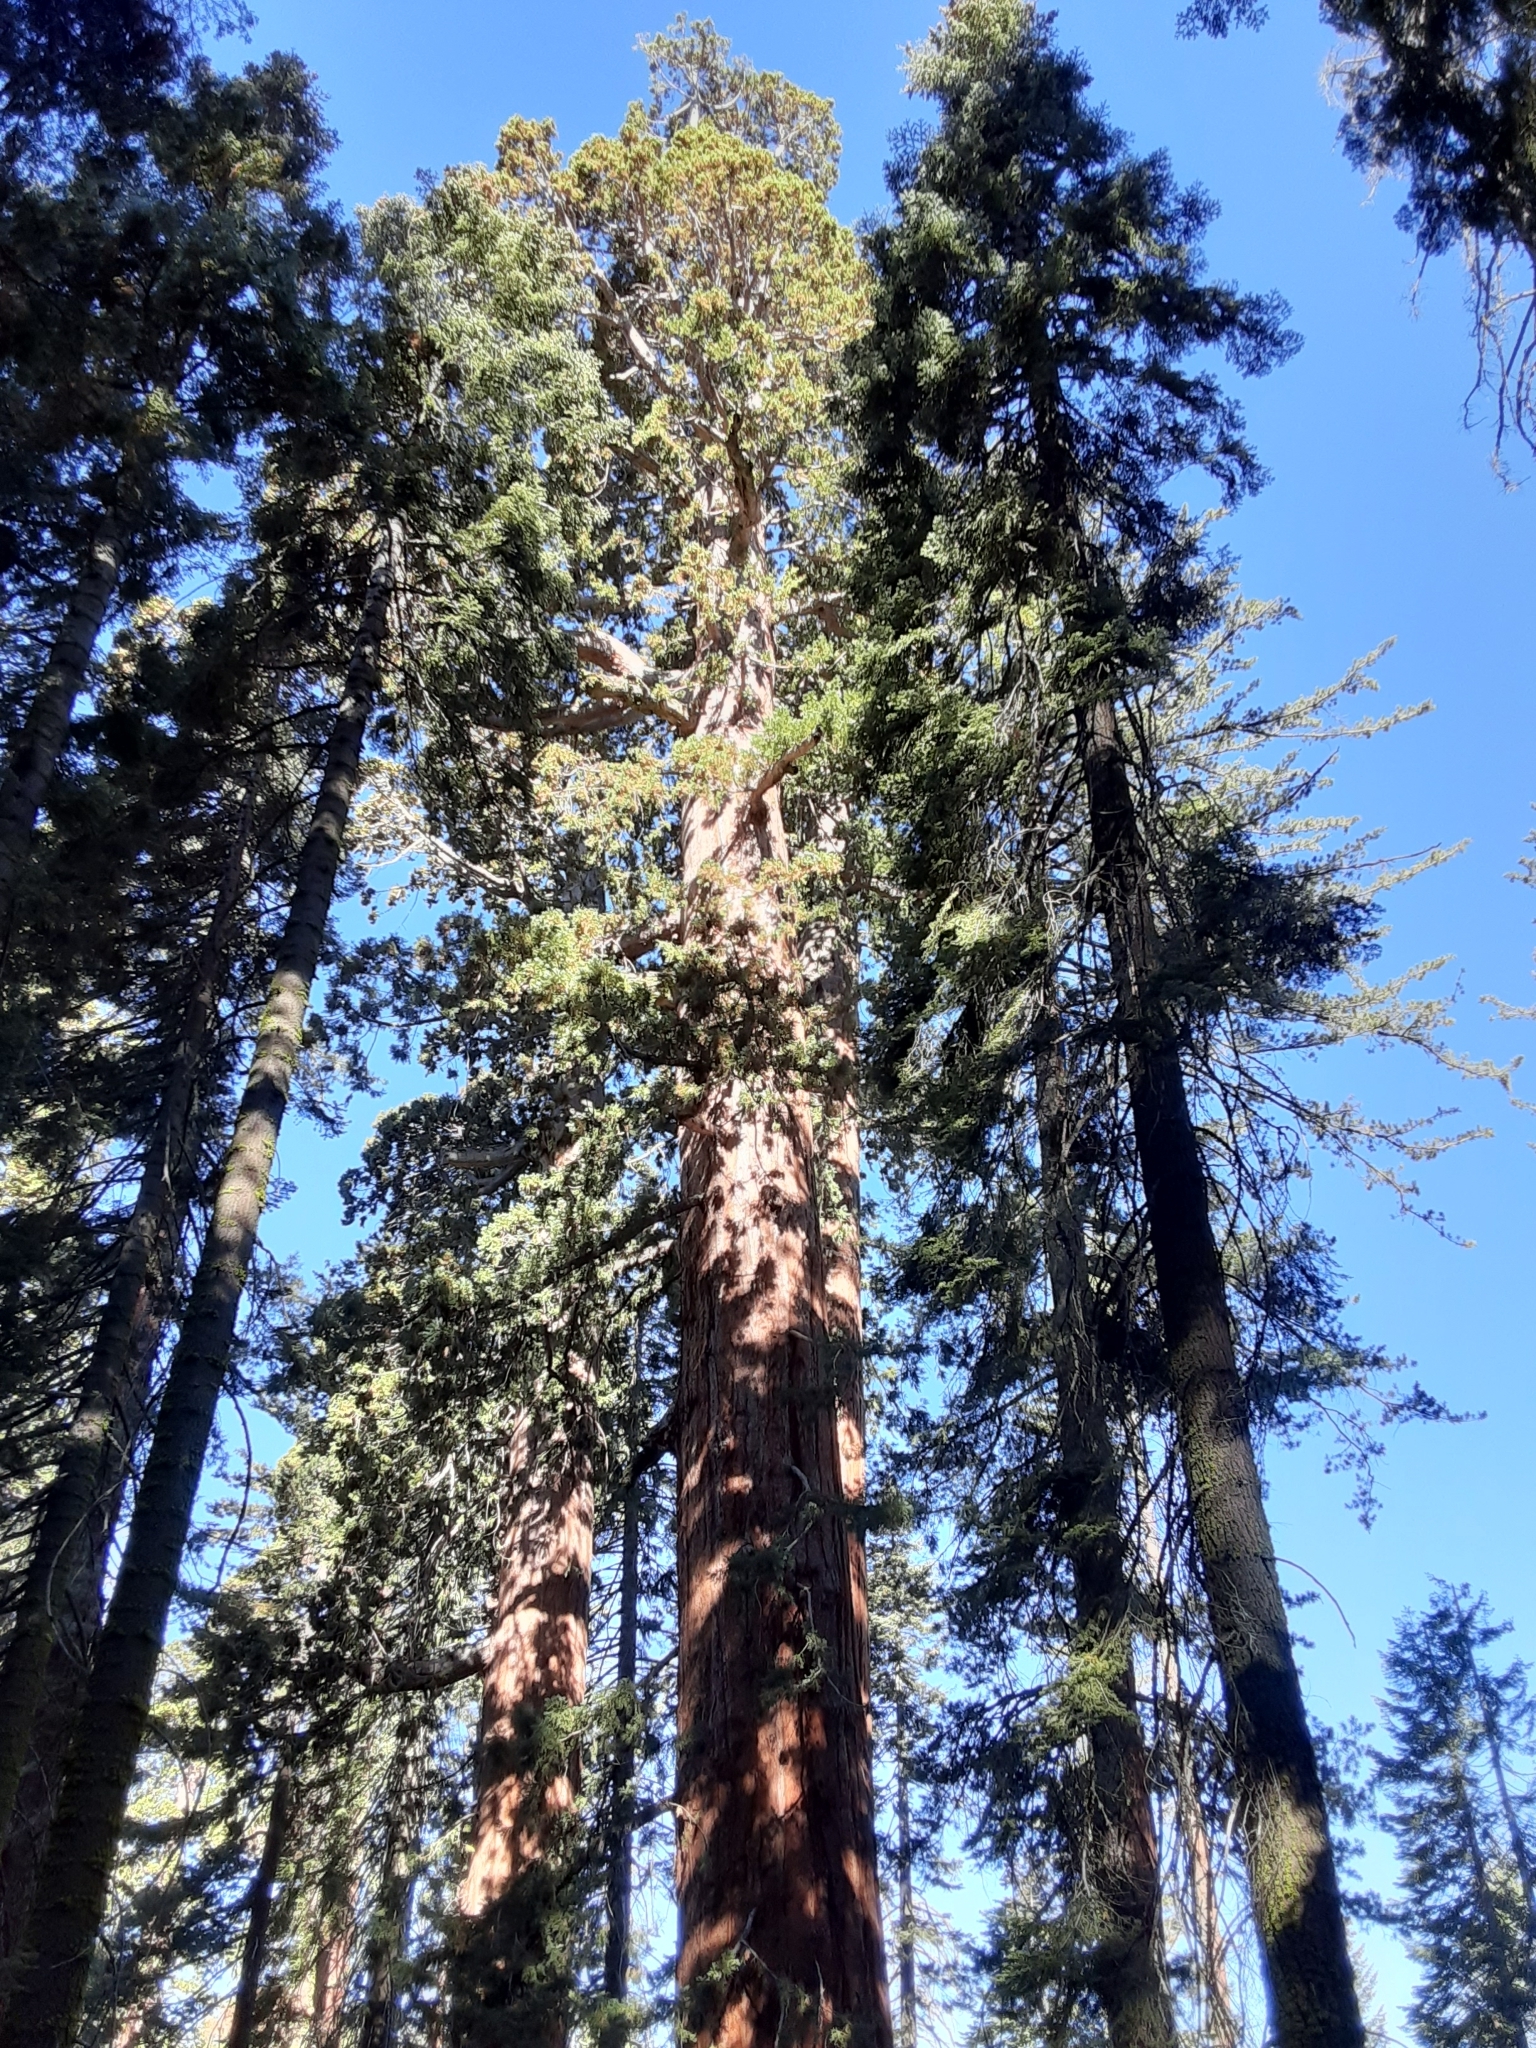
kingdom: Plantae
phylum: Tracheophyta
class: Pinopsida
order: Pinales
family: Cupressaceae
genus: Sequoiadendron
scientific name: Sequoiadendron giganteum
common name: Wellingtonia
